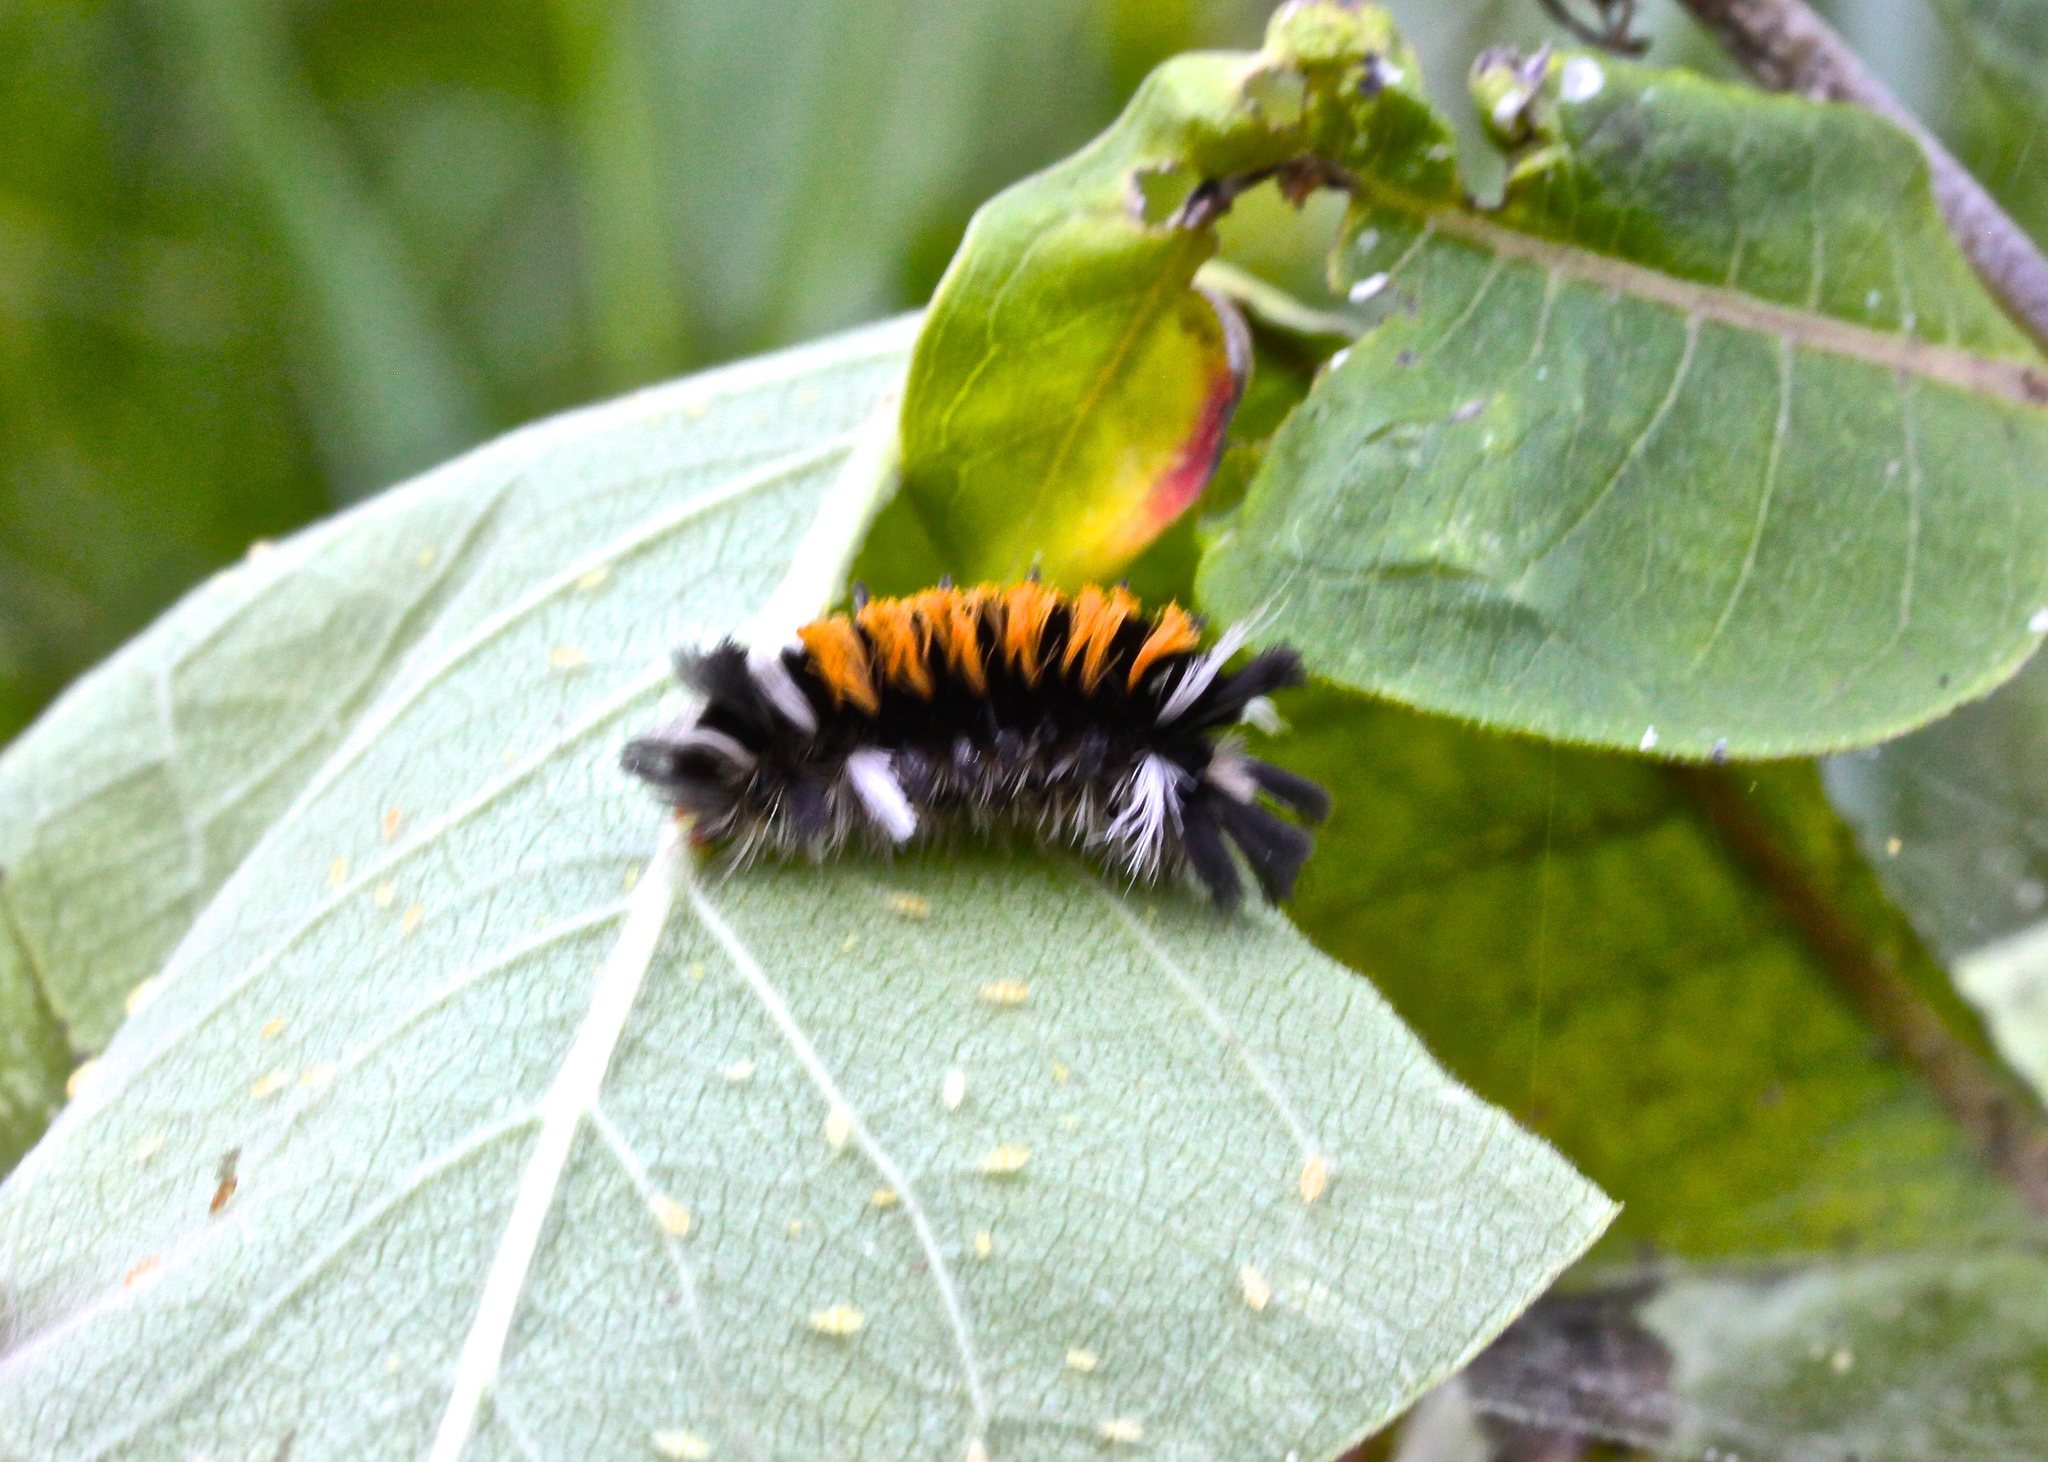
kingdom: Animalia
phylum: Arthropoda
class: Insecta
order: Lepidoptera
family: Erebidae
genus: Euchaetes
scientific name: Euchaetes egle
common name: Milkweed tussock moth
